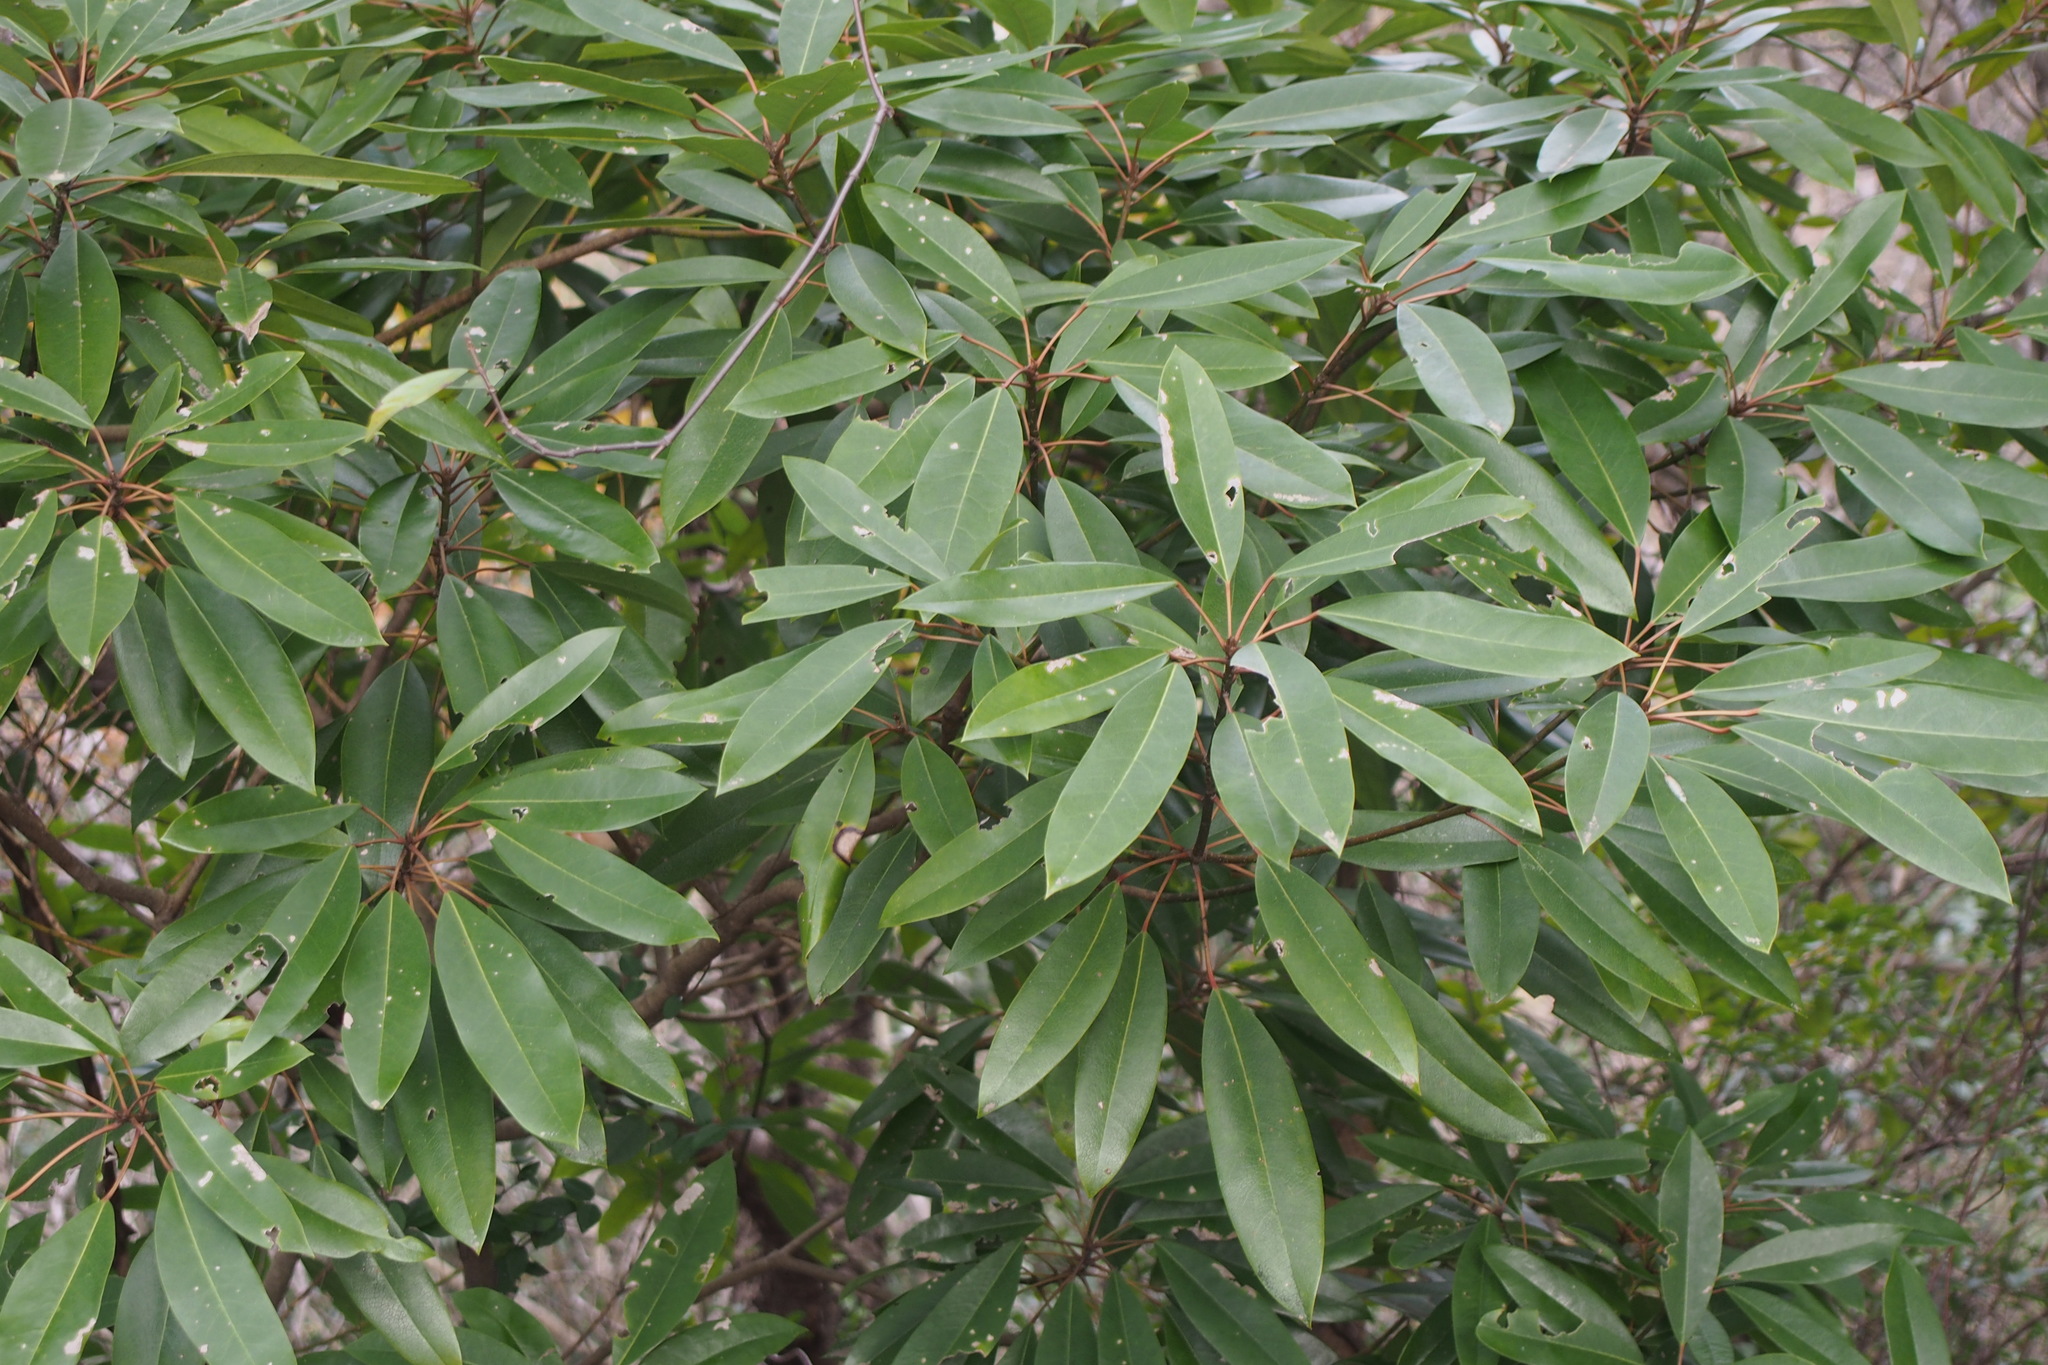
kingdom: Plantae
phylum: Tracheophyta
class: Magnoliopsida
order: Saxifragales
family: Daphniphyllaceae
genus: Daphniphyllum
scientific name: Daphniphyllum teijsmannii
